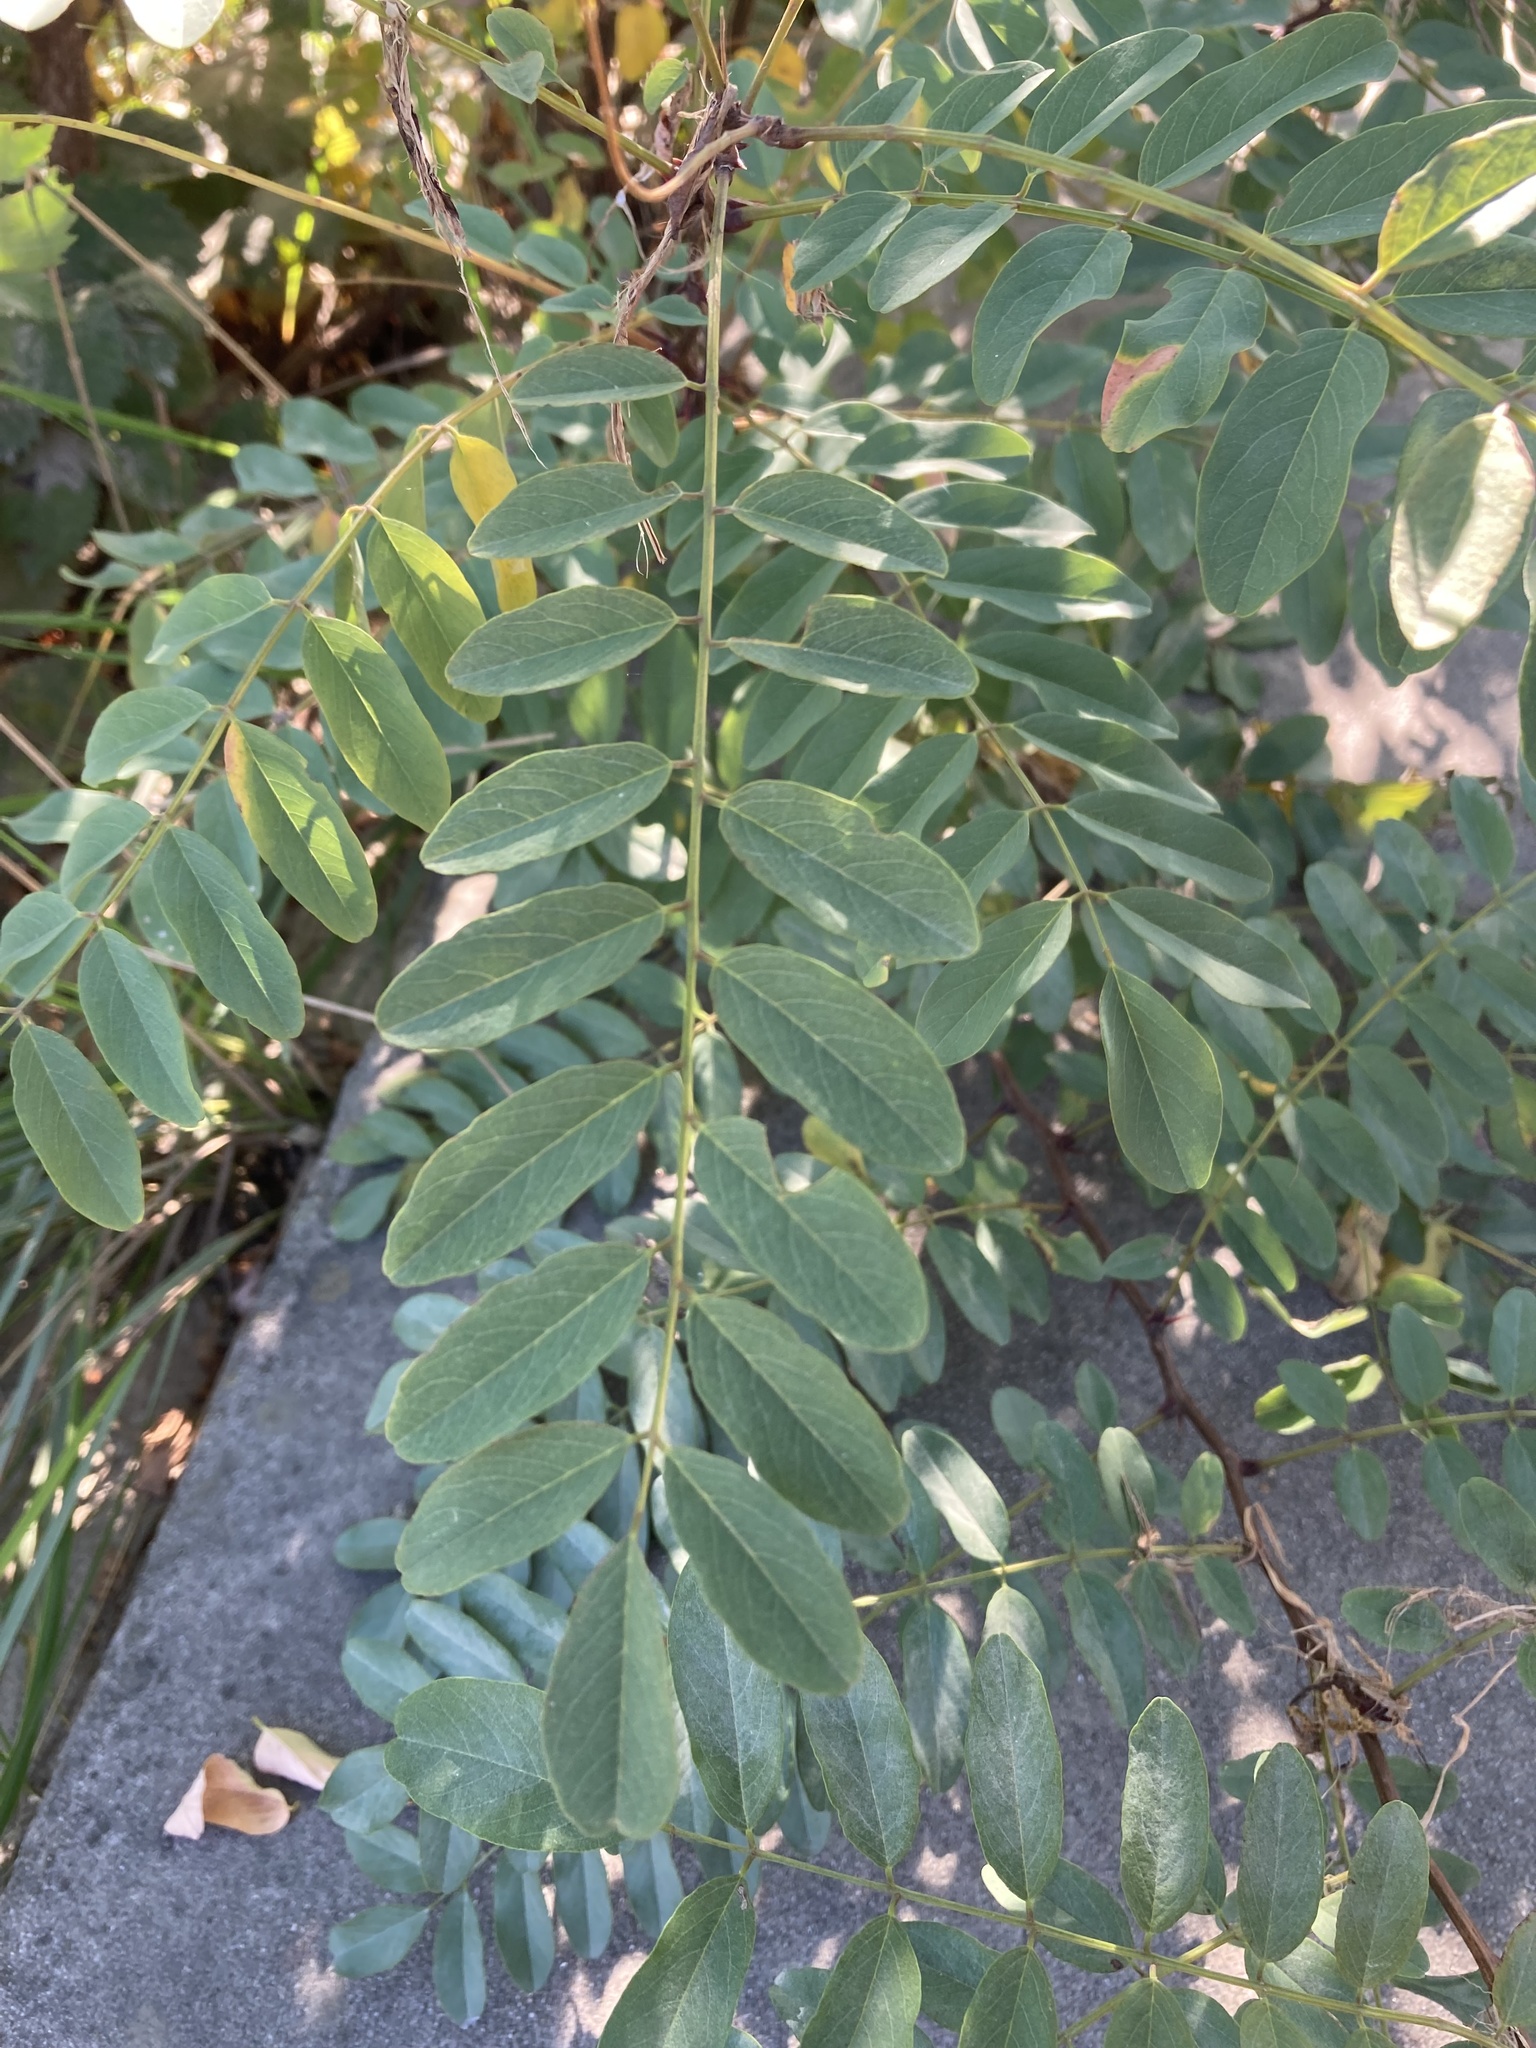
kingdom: Plantae
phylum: Tracheophyta
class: Magnoliopsida
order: Fabales
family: Fabaceae
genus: Robinia
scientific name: Robinia pseudoacacia
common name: Black locust
